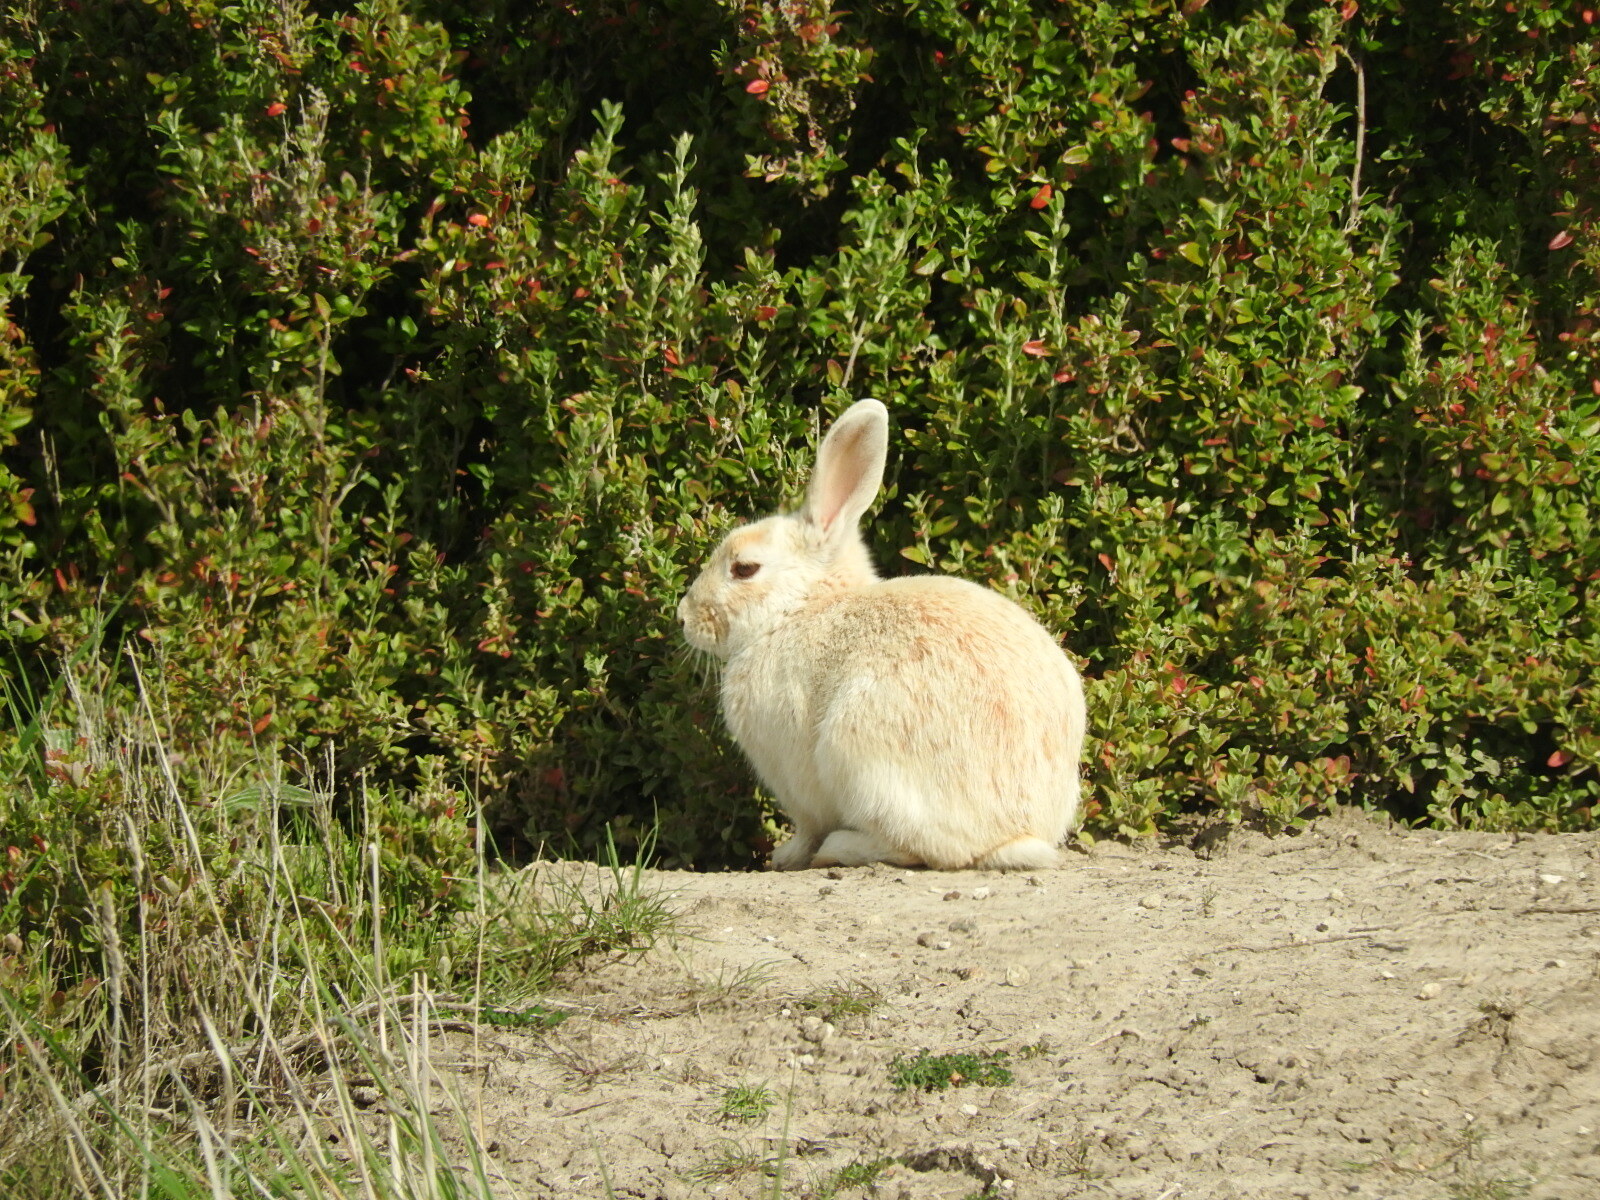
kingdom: Animalia
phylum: Chordata
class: Mammalia
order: Lagomorpha
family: Leporidae
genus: Oryctolagus
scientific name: Oryctolagus cuniculus
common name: European rabbit
